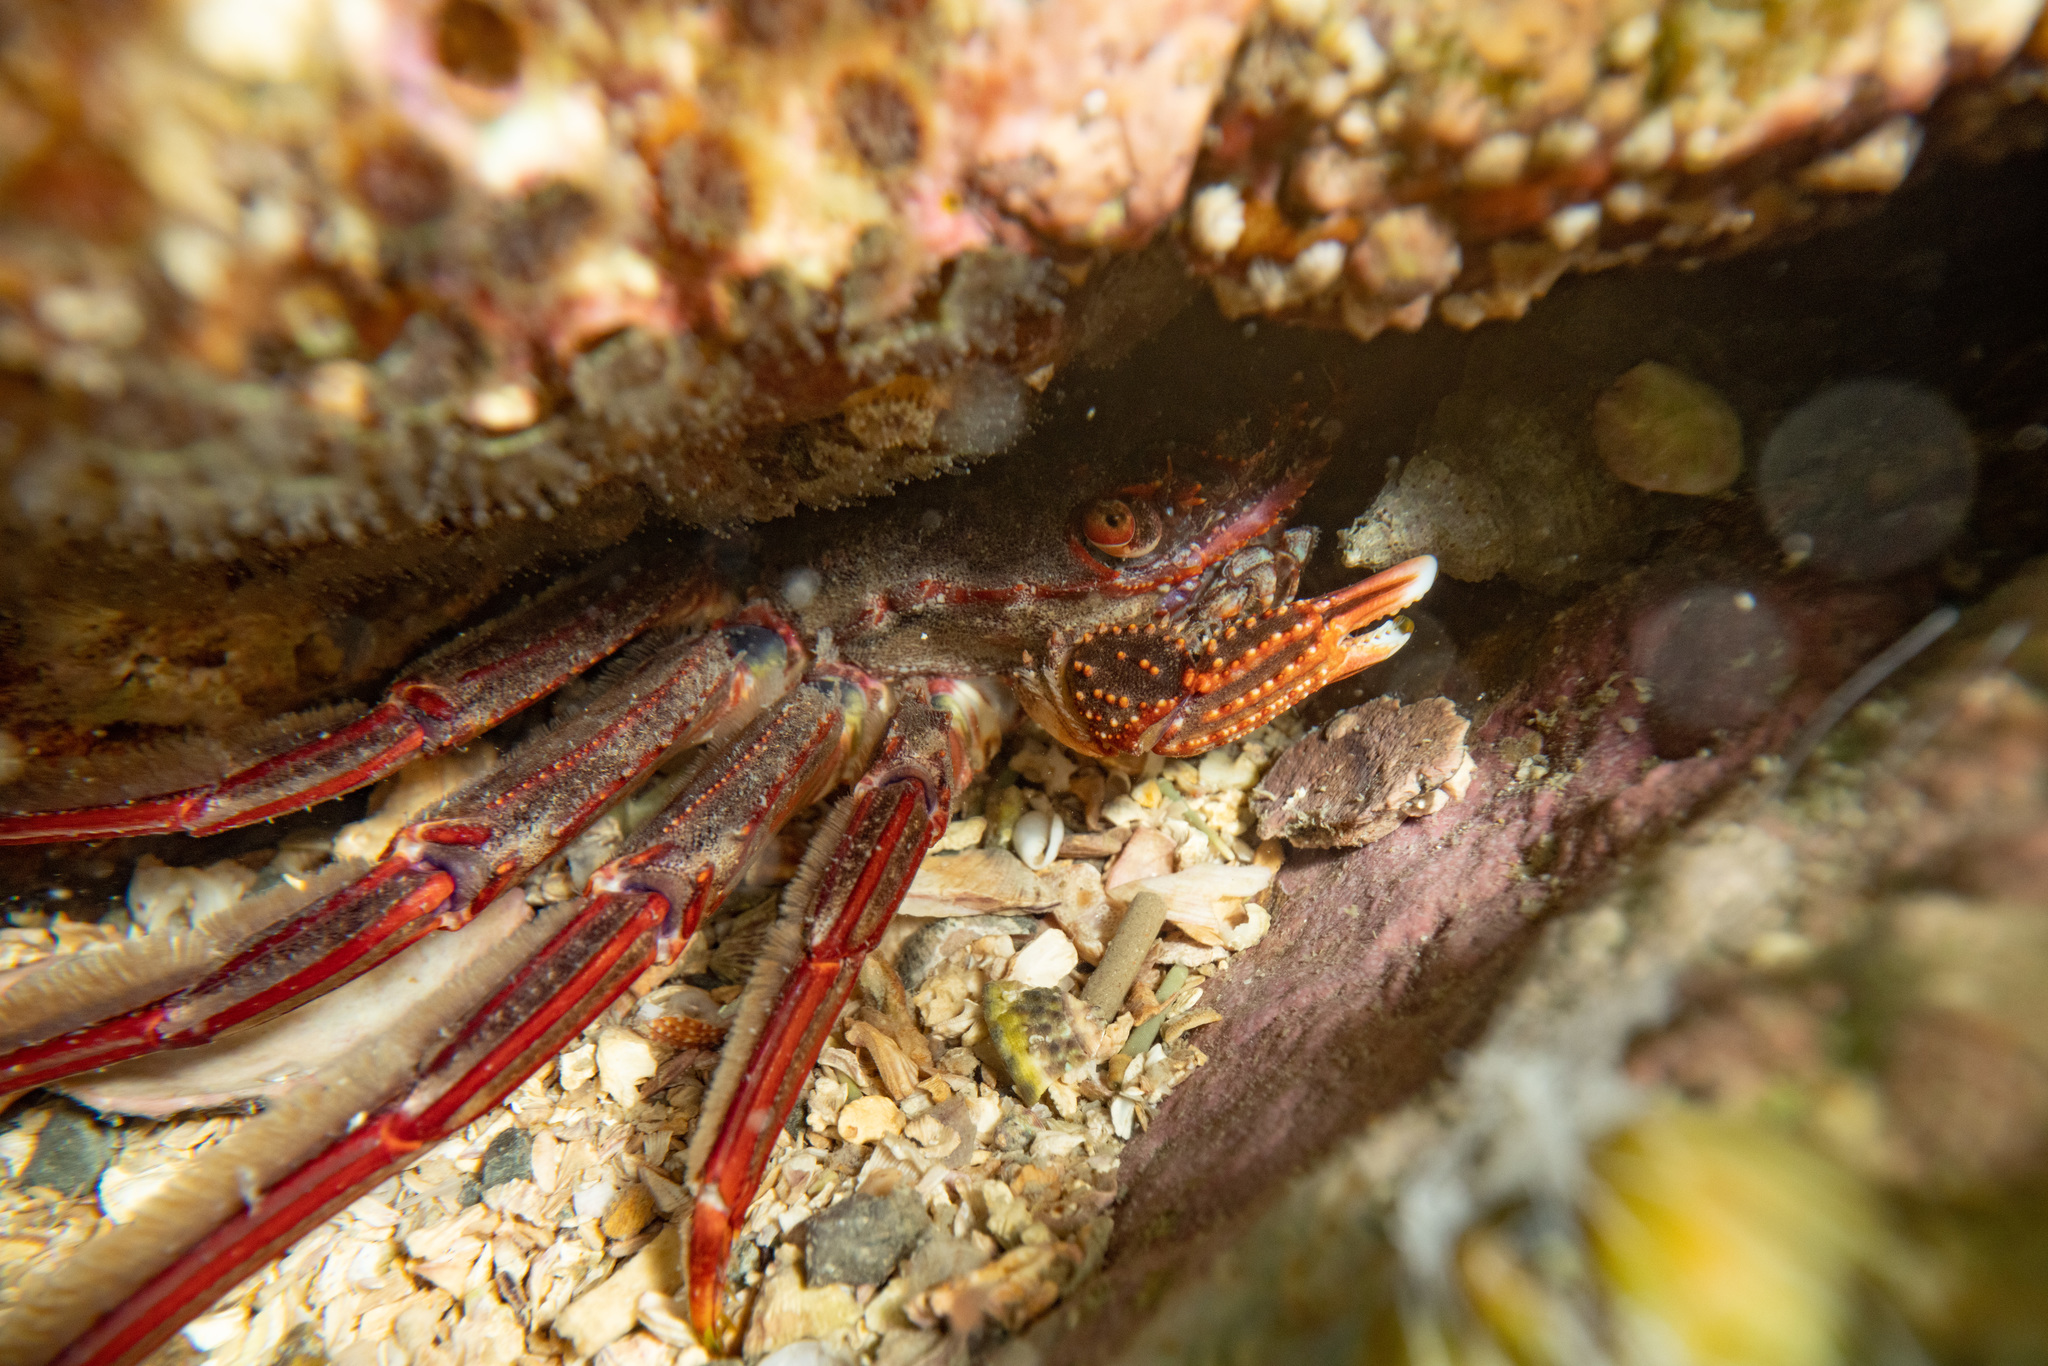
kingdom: Animalia
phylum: Arthropoda
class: Malacostraca
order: Decapoda
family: Plagusiidae
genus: Guinusia
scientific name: Guinusia chabrus
